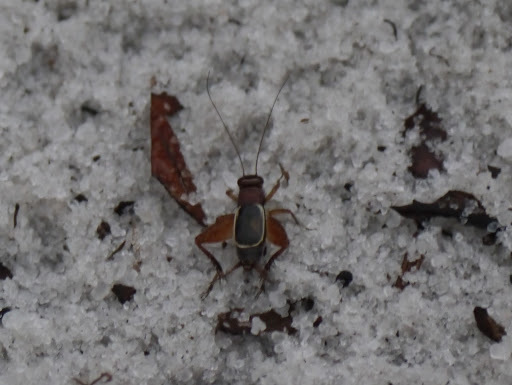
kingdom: Animalia
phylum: Arthropoda
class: Insecta
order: Orthoptera
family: Trigonidiidae
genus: Pictonemobius
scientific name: Pictonemobius arenicola
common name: Sandhills ground cricket
